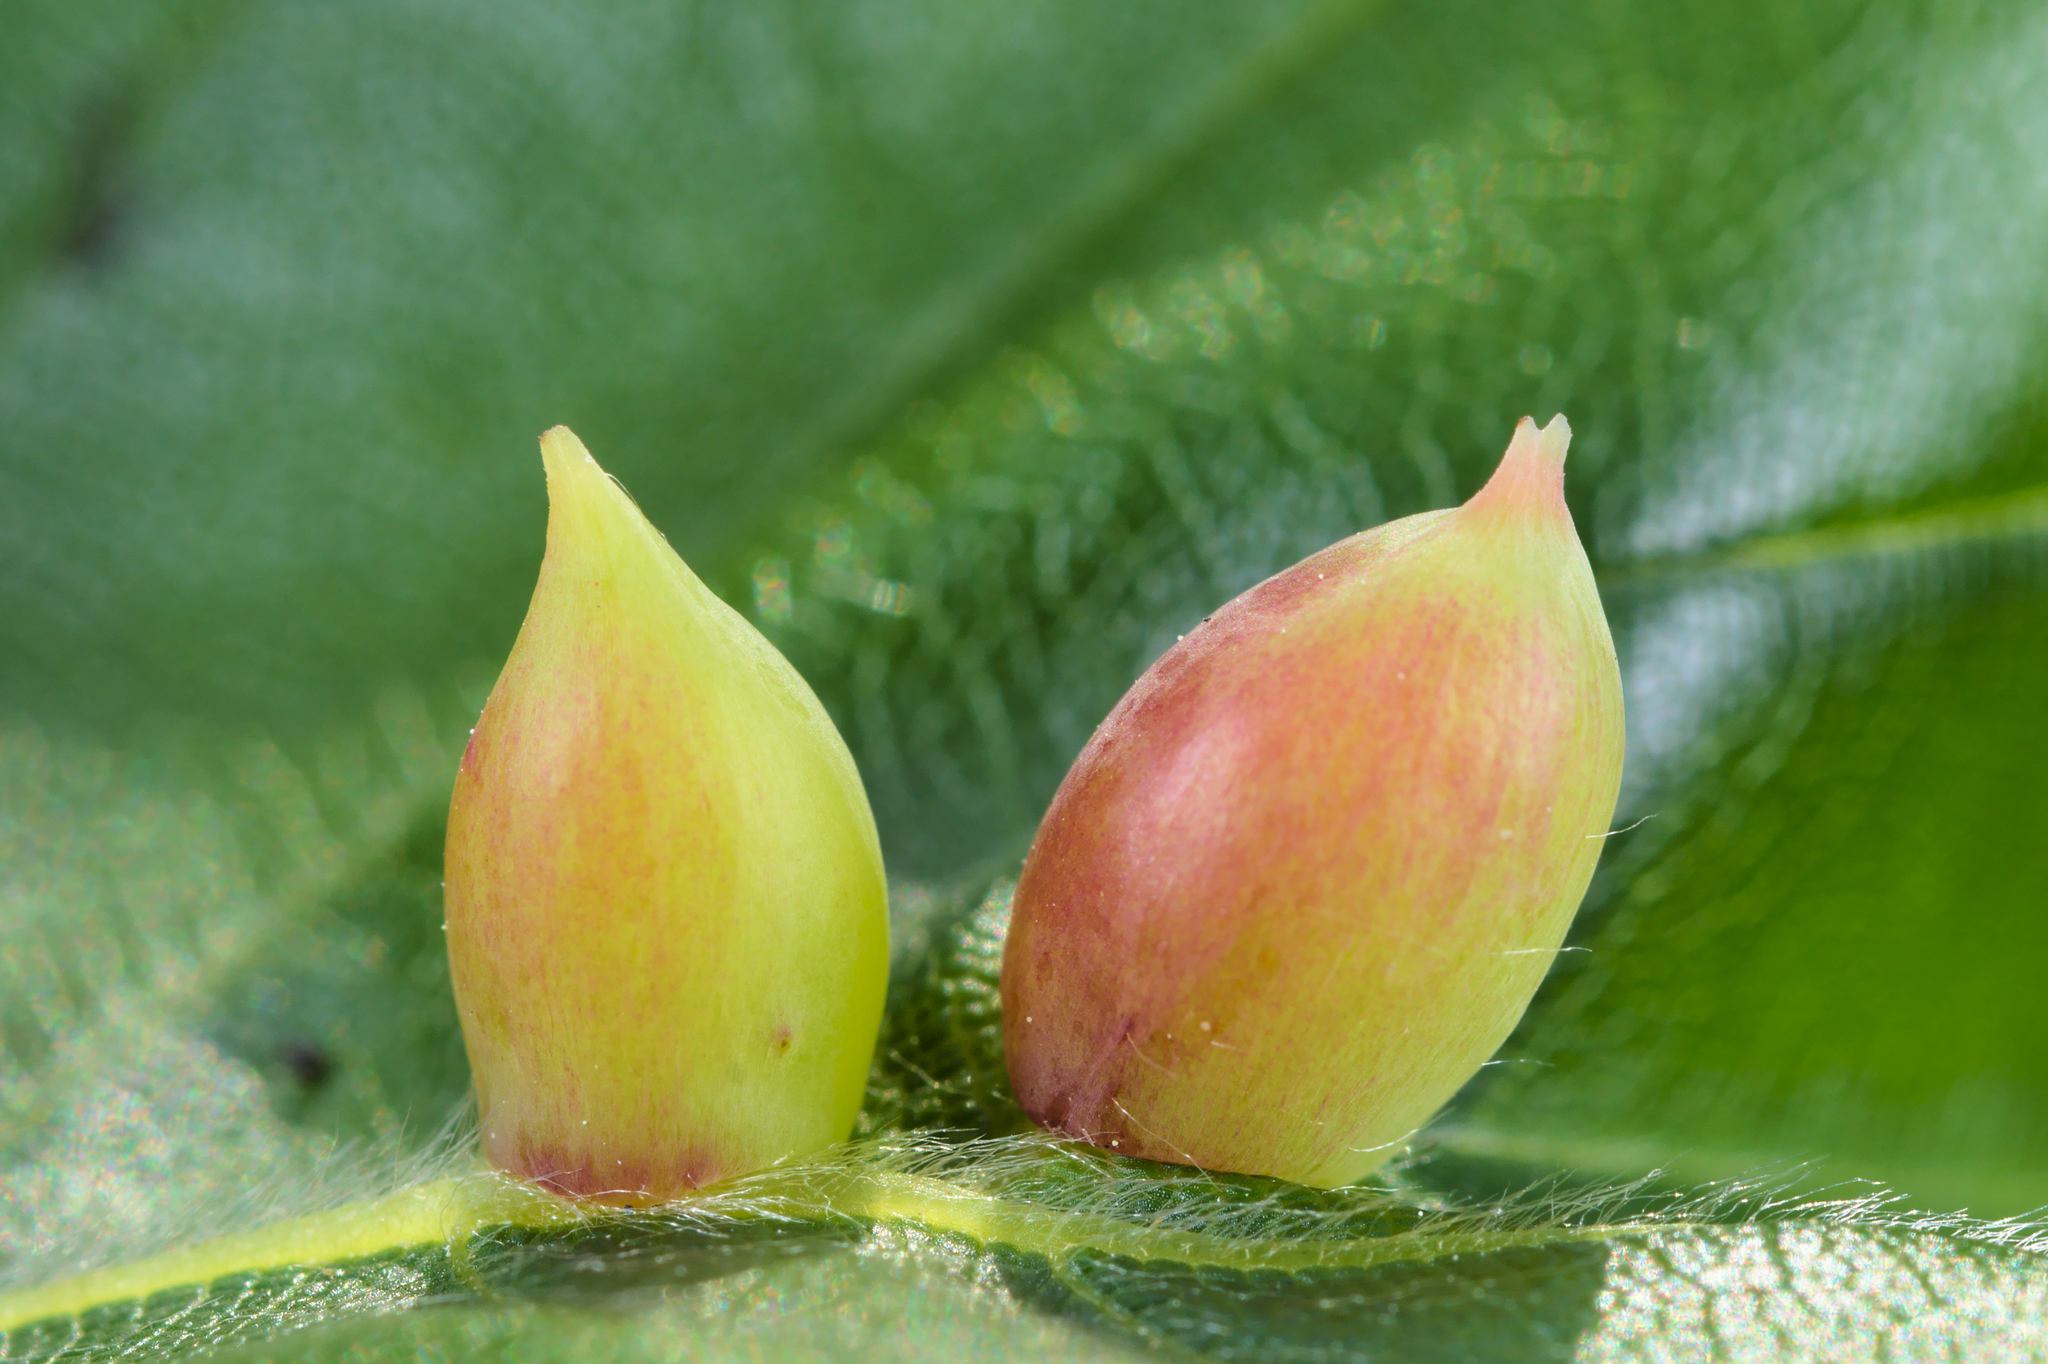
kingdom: Animalia
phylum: Arthropoda
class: Insecta
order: Diptera
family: Cecidomyiidae
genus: Mikiola
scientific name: Mikiola fagi
